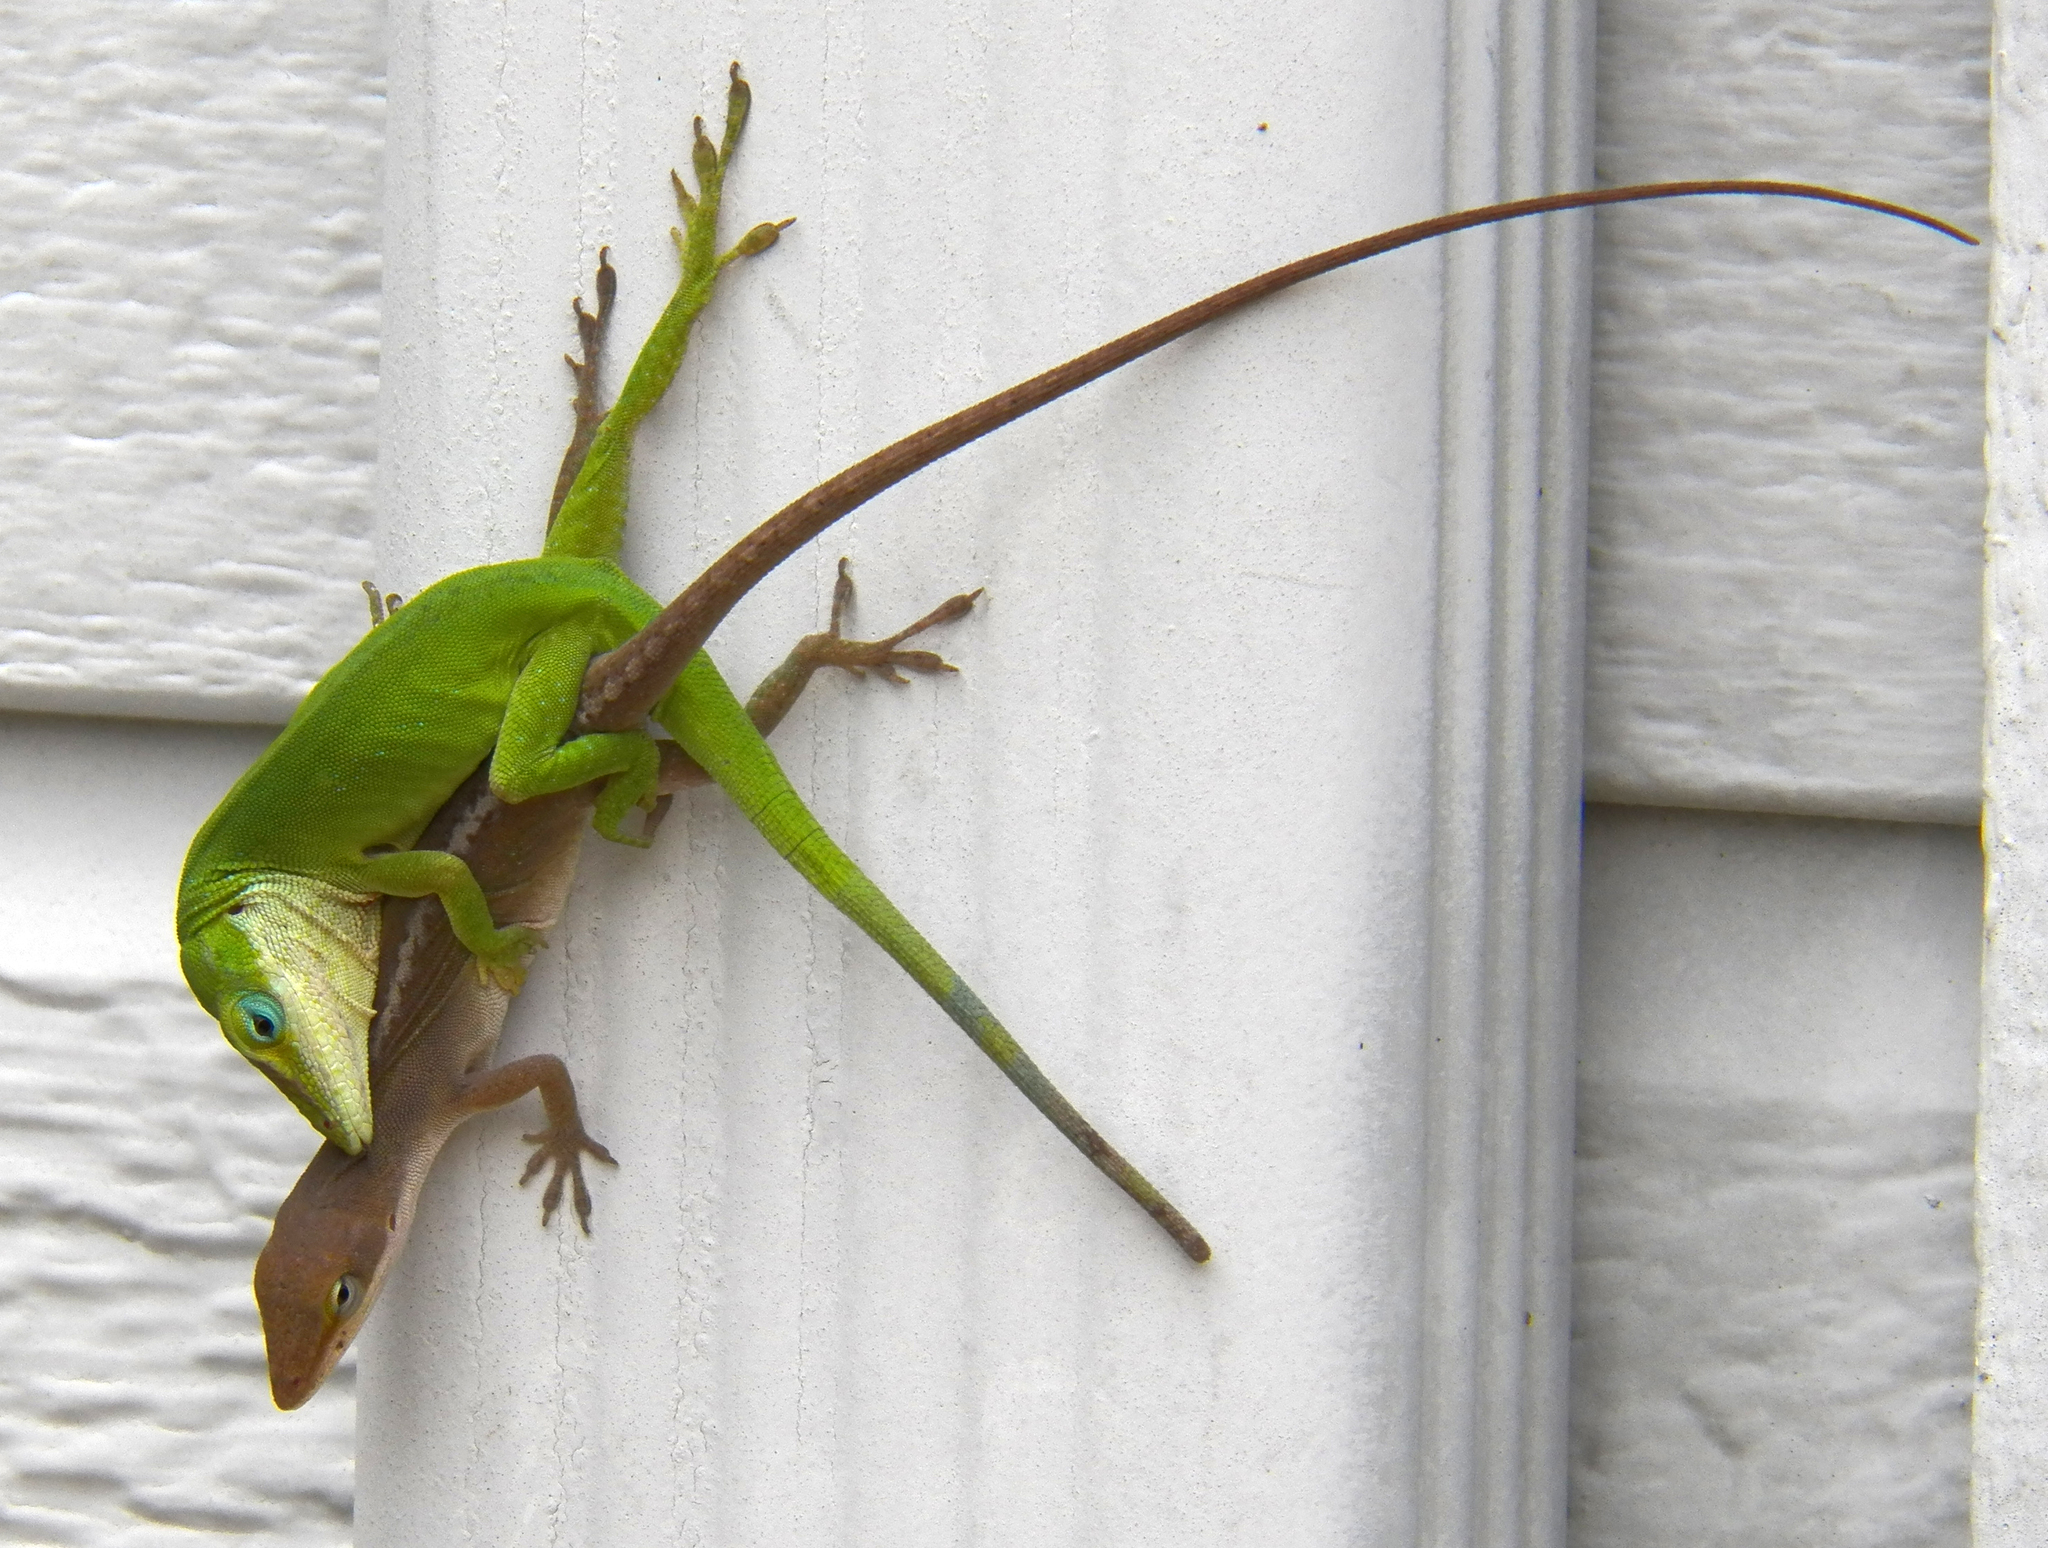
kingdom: Animalia
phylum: Chordata
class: Squamata
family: Dactyloidae
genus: Anolis
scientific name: Anolis carolinensis
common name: Green anole
